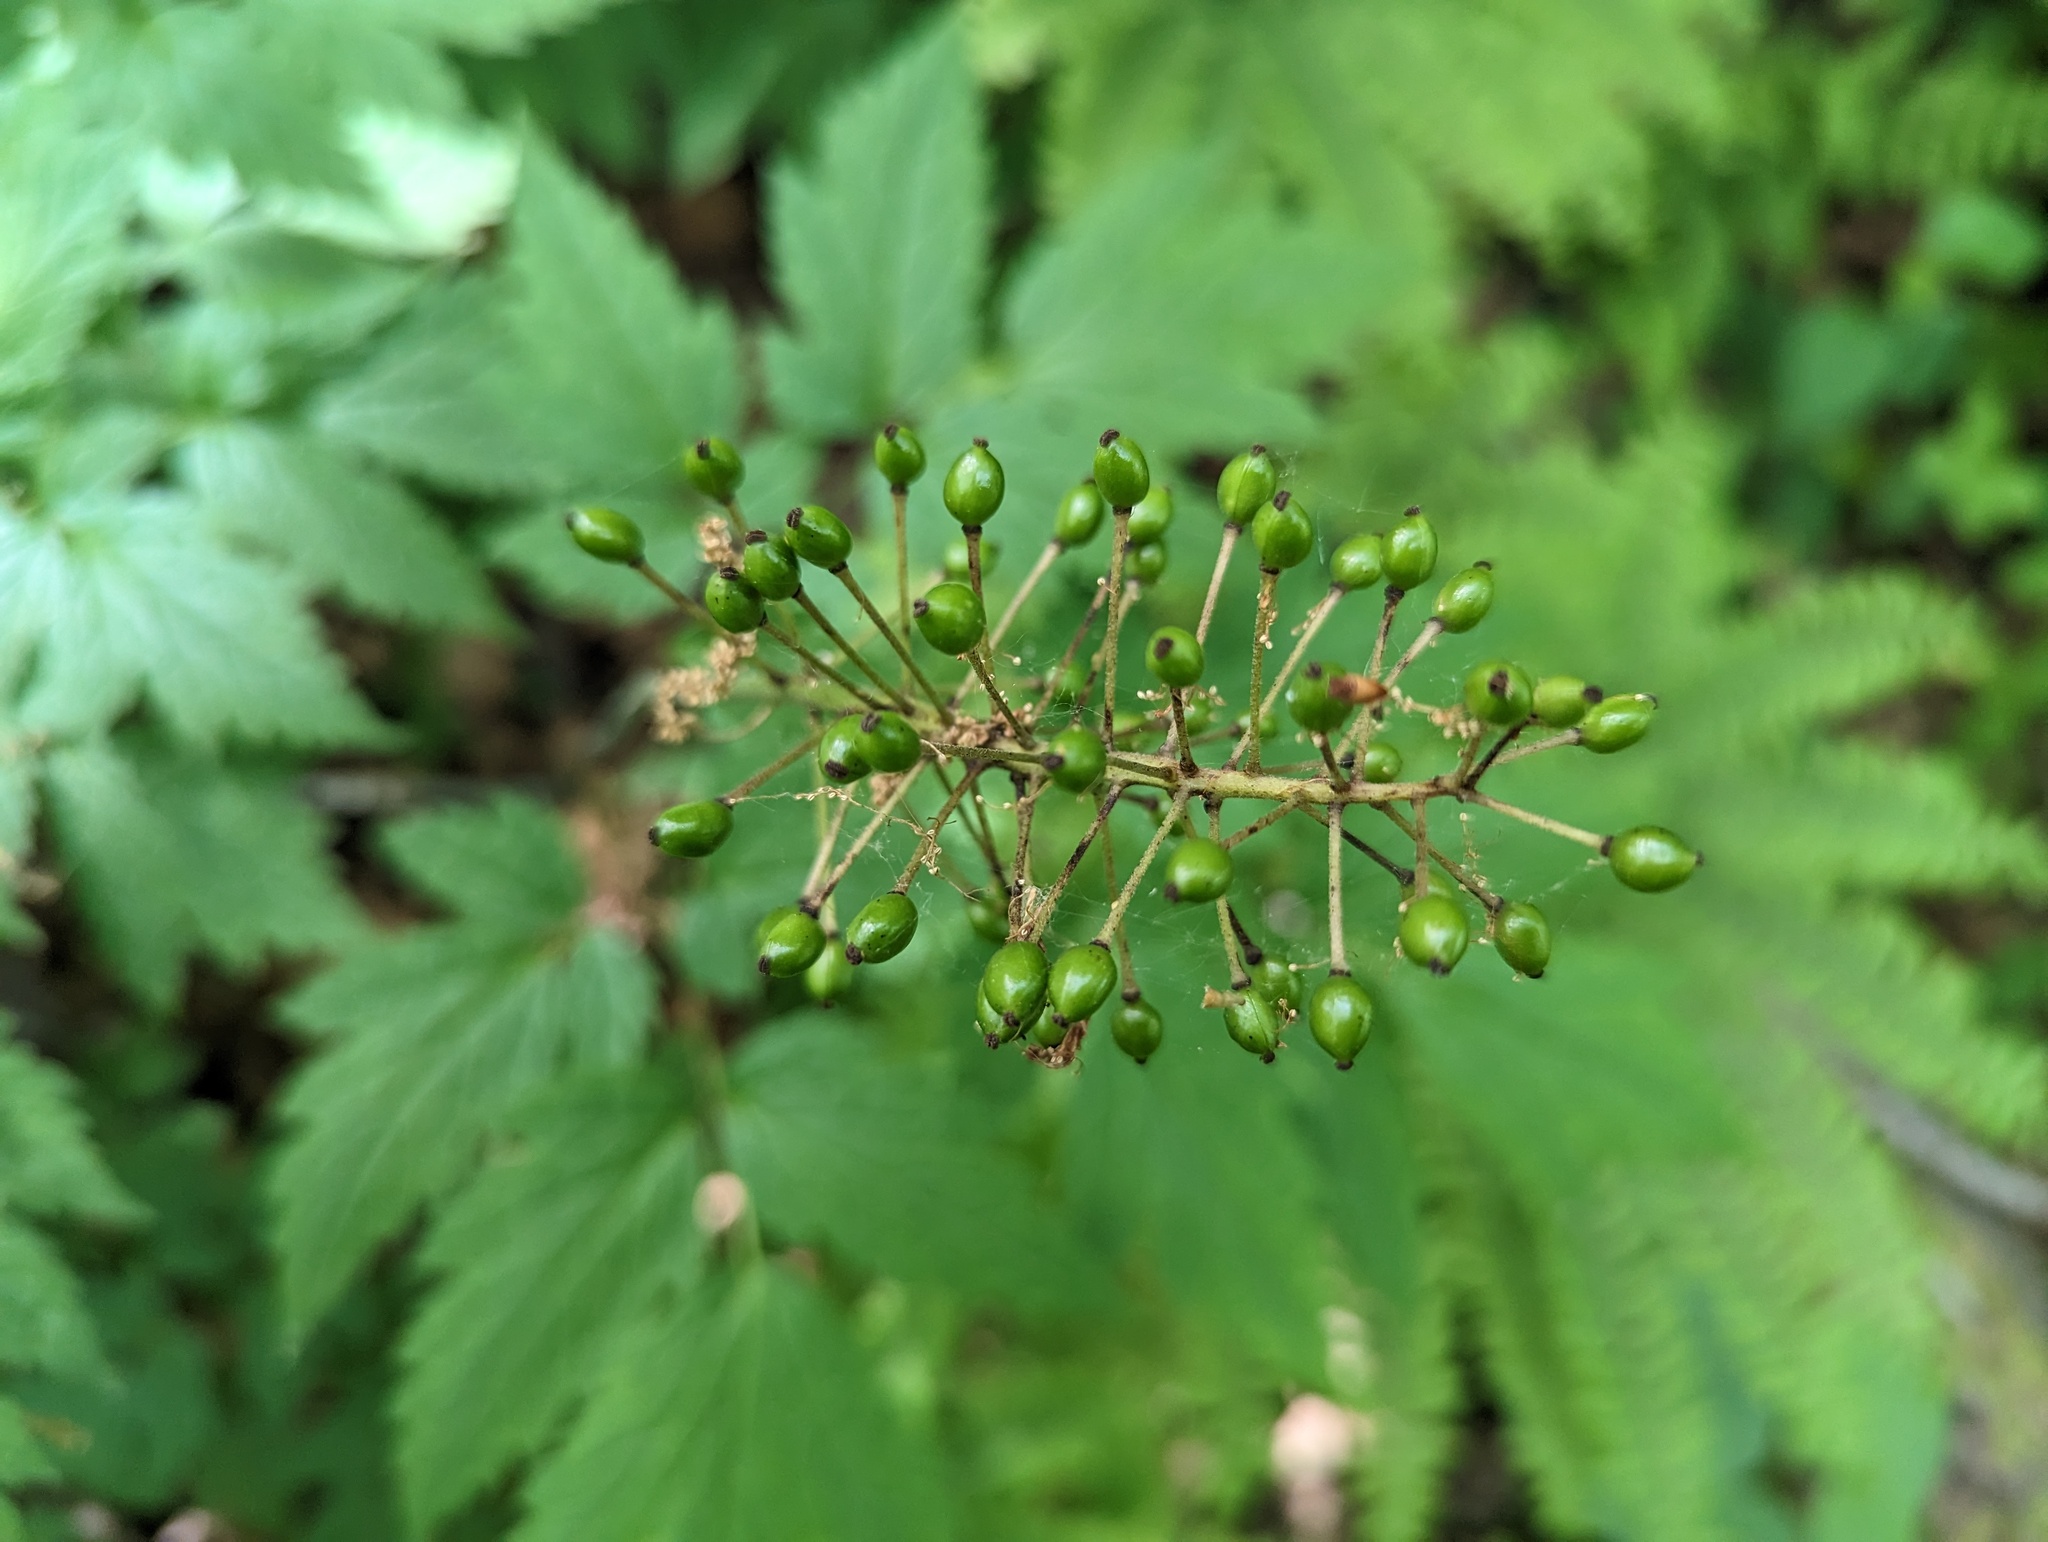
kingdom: Plantae
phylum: Tracheophyta
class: Magnoliopsida
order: Ranunculales
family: Ranunculaceae
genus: Actaea
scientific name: Actaea rubra
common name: Red baneberry
